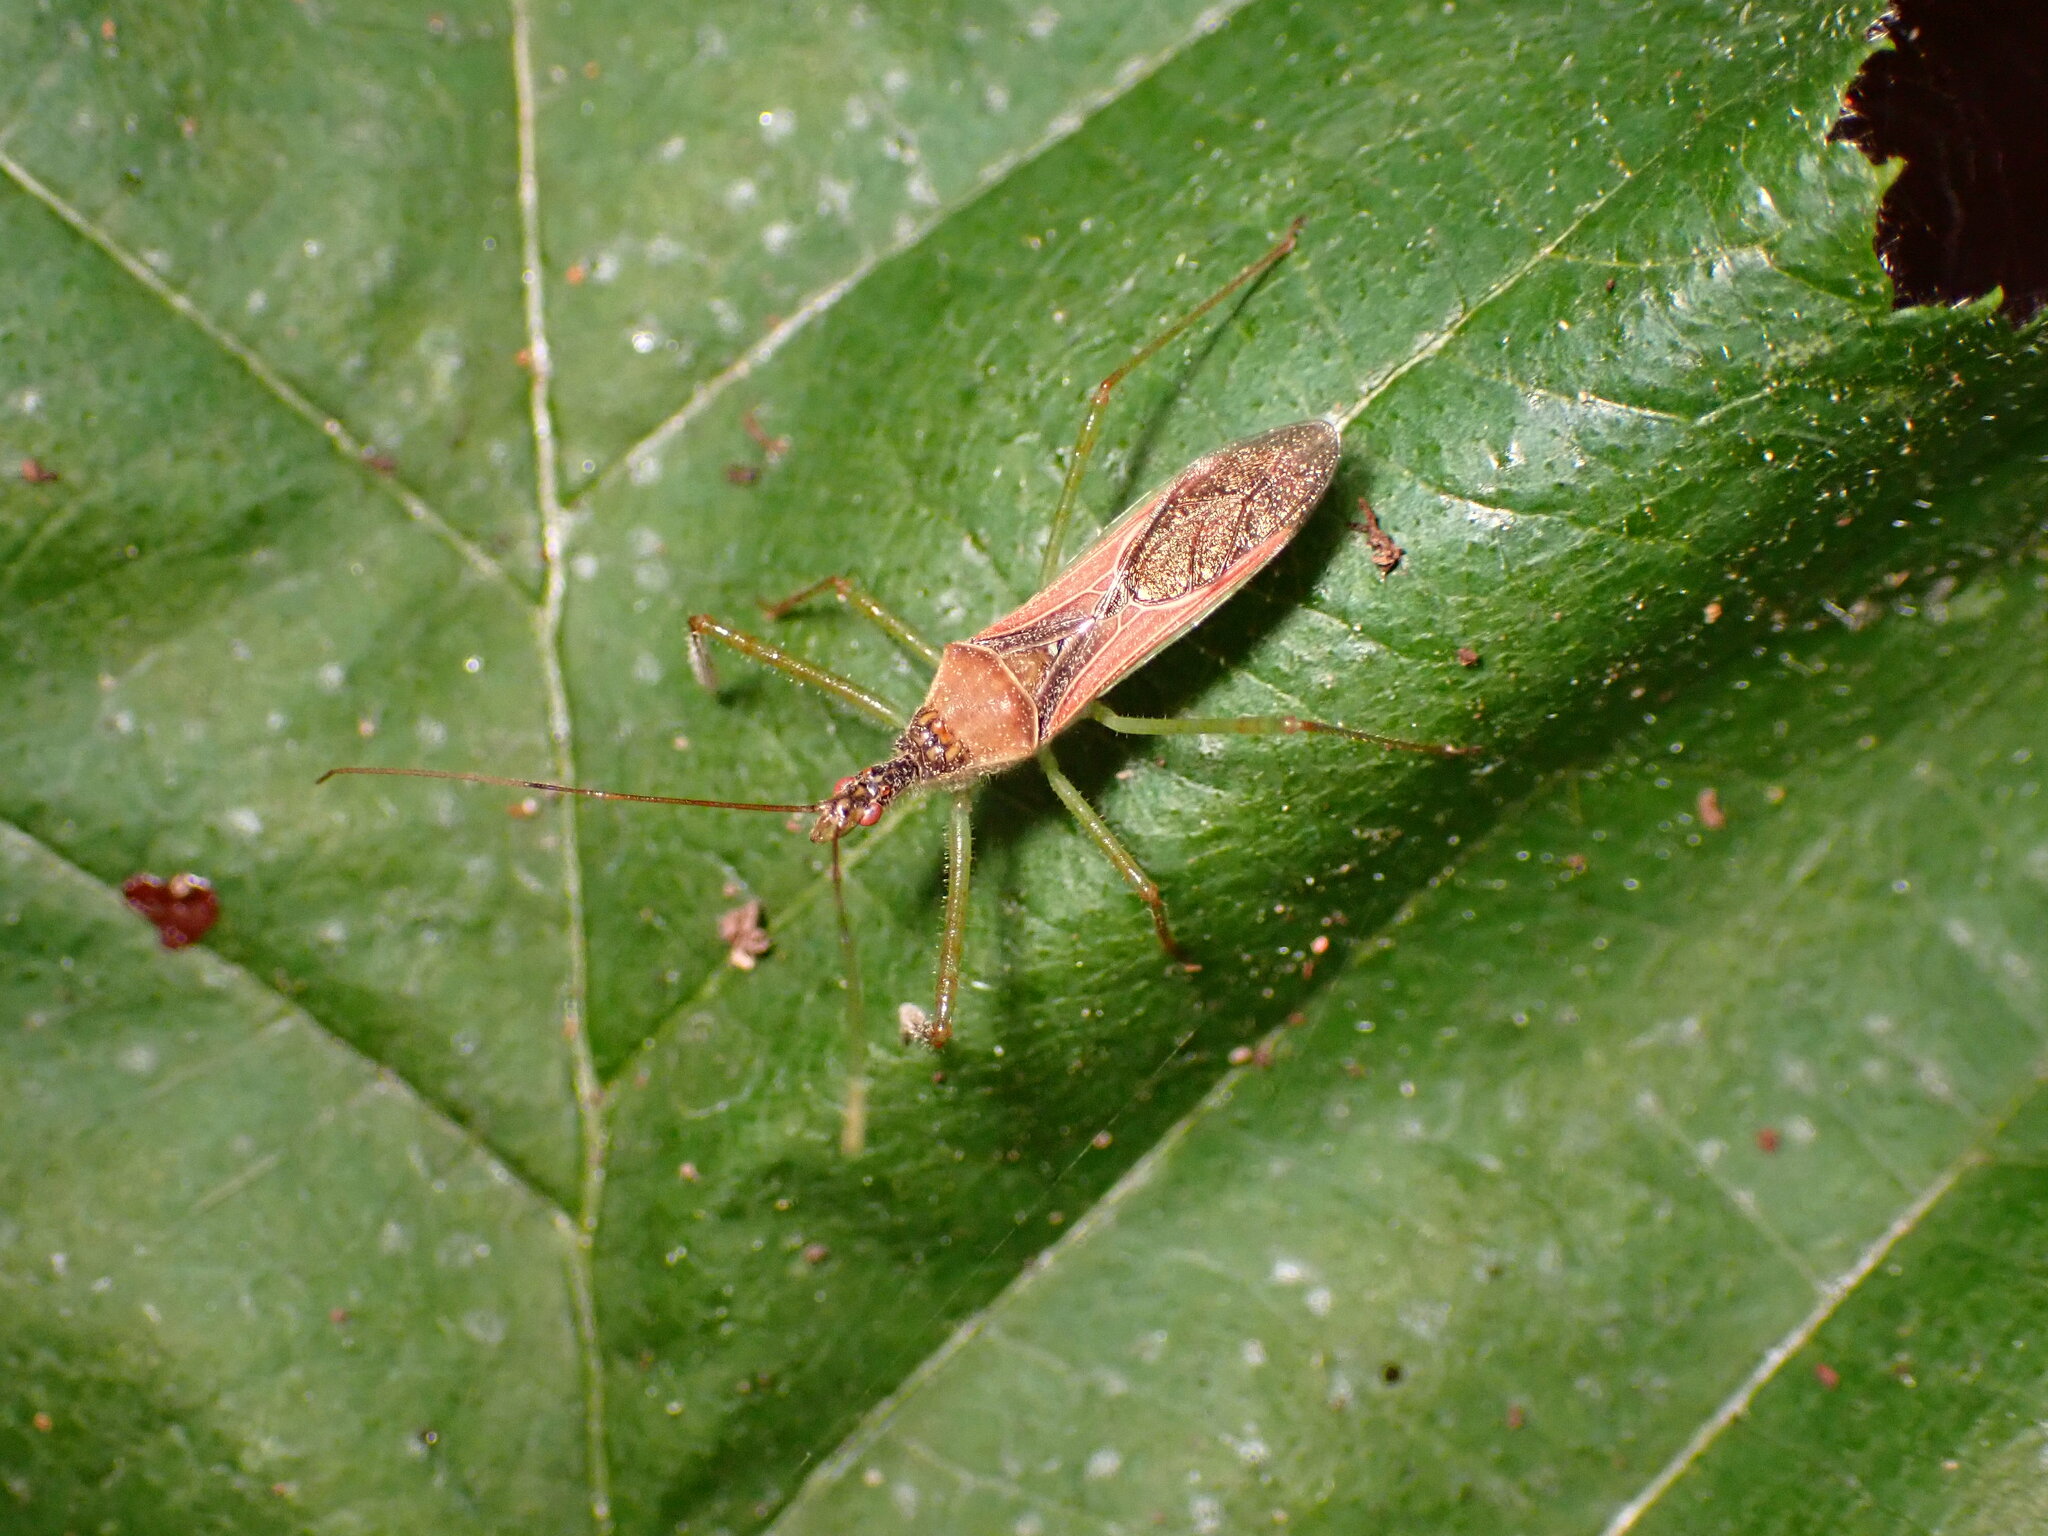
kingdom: Animalia
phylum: Arthropoda
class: Insecta
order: Hemiptera
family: Reduviidae
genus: Zelus
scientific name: Zelus renardii
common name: Assassin bug
